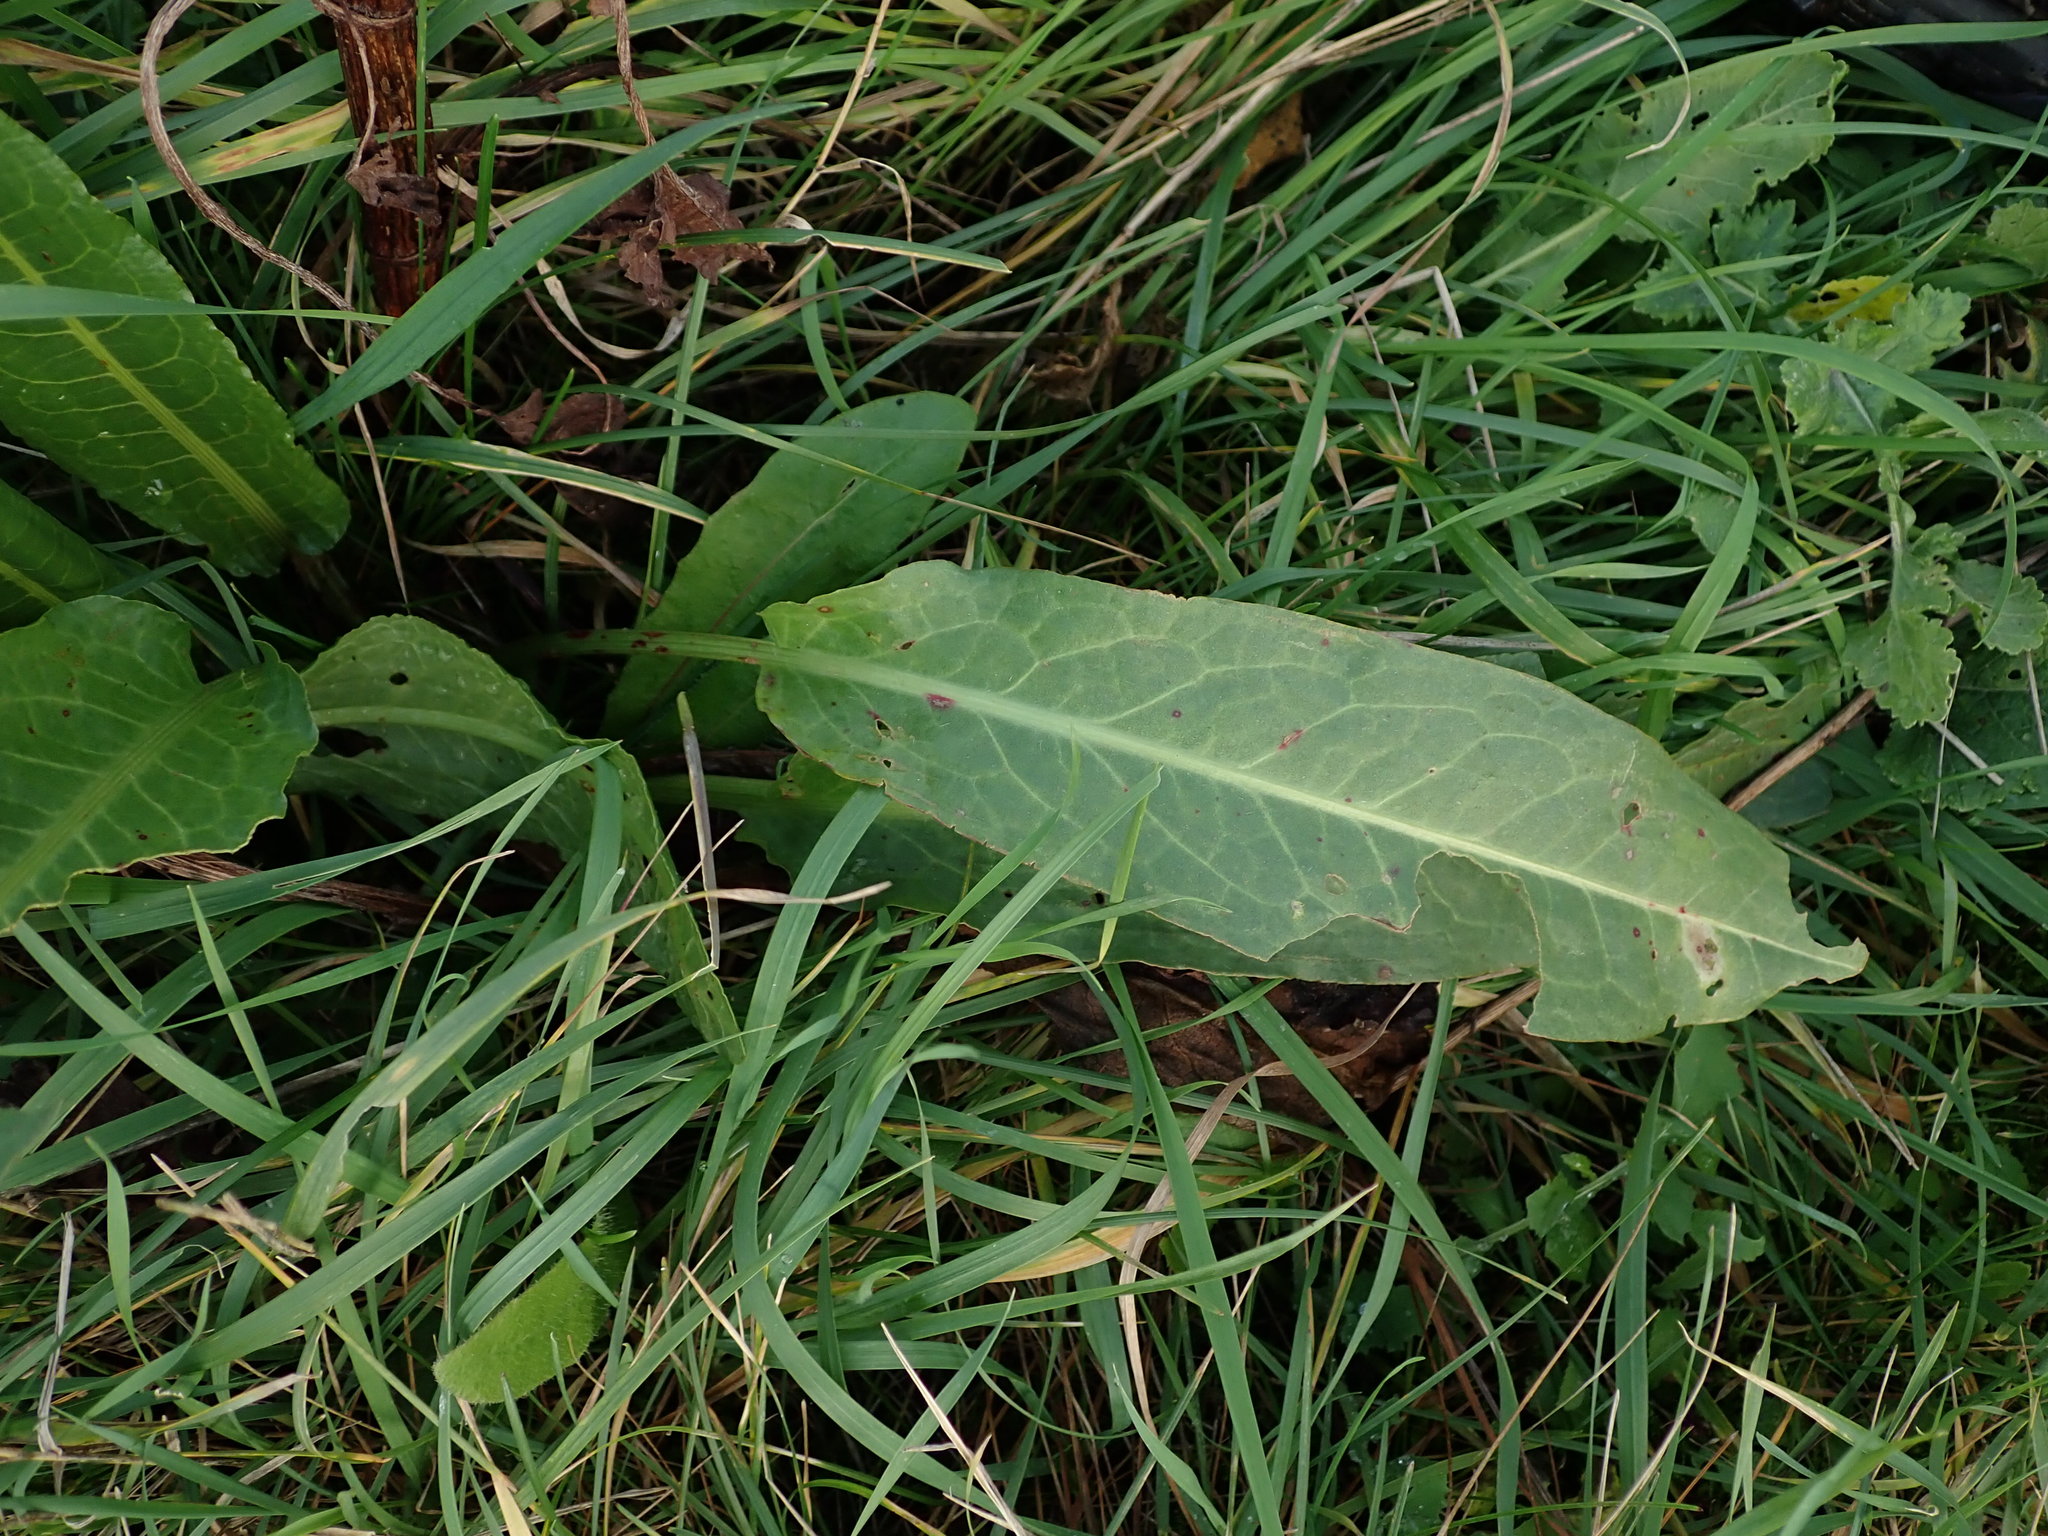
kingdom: Plantae
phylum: Tracheophyta
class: Magnoliopsida
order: Caryophyllales
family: Polygonaceae
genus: Rumex
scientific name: Rumex cristatus
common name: Greek dock
